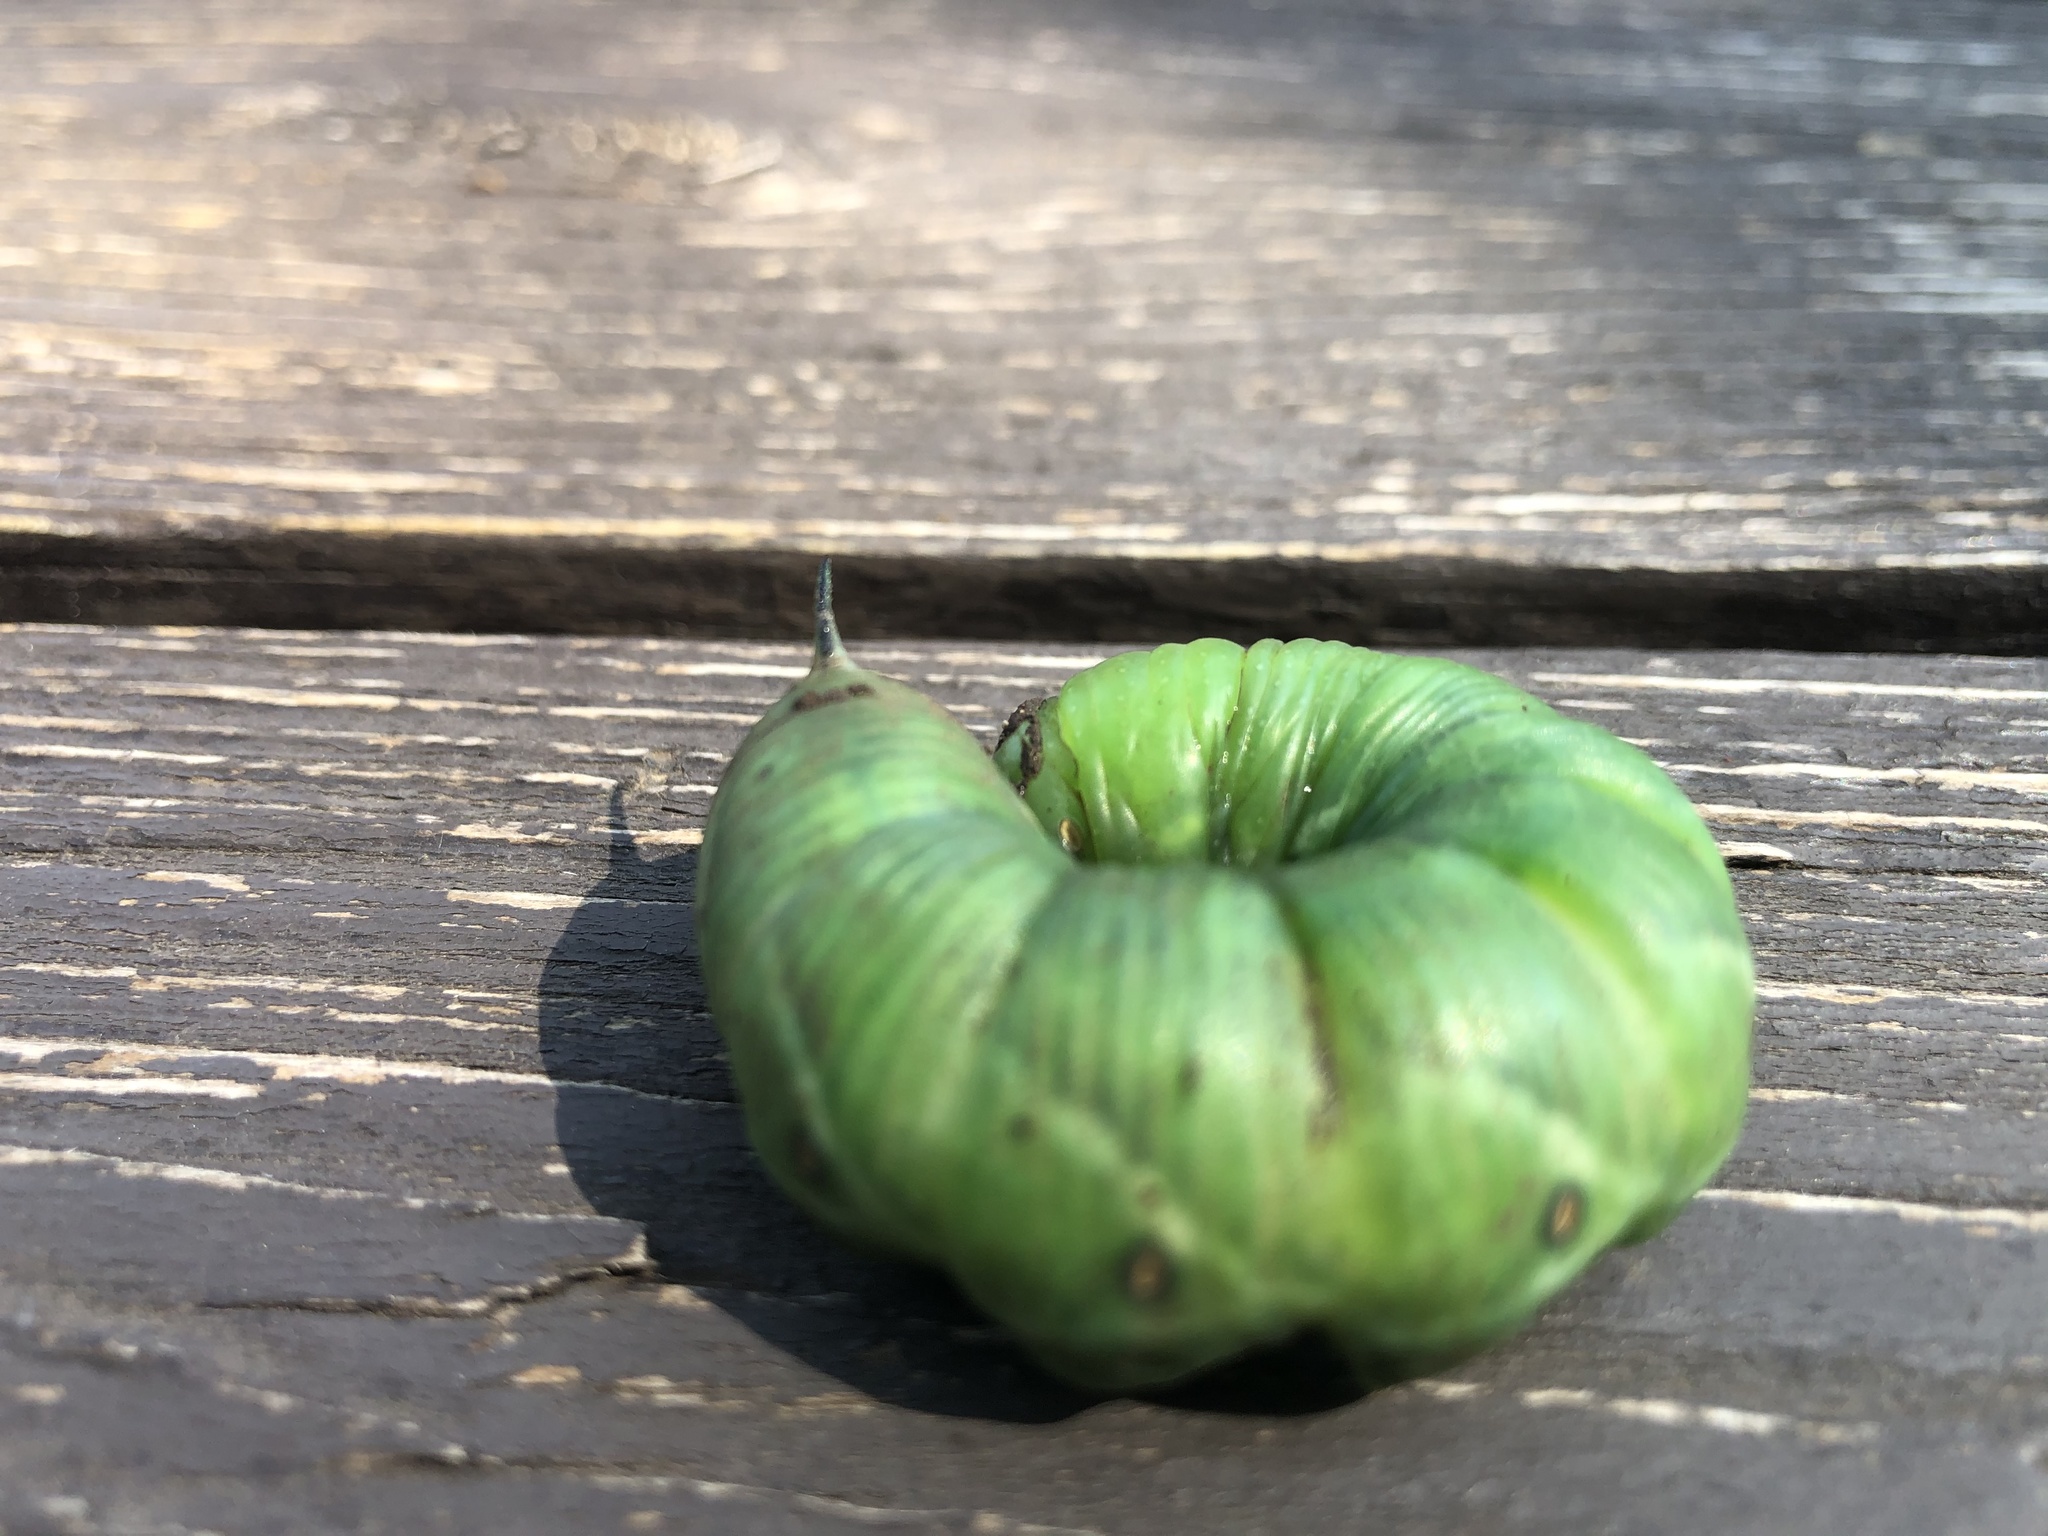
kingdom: Animalia
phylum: Arthropoda
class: Insecta
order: Lepidoptera
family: Sphingidae
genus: Manduca
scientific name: Manduca quinquemaculatus
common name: Five-spotted hawk-moth
